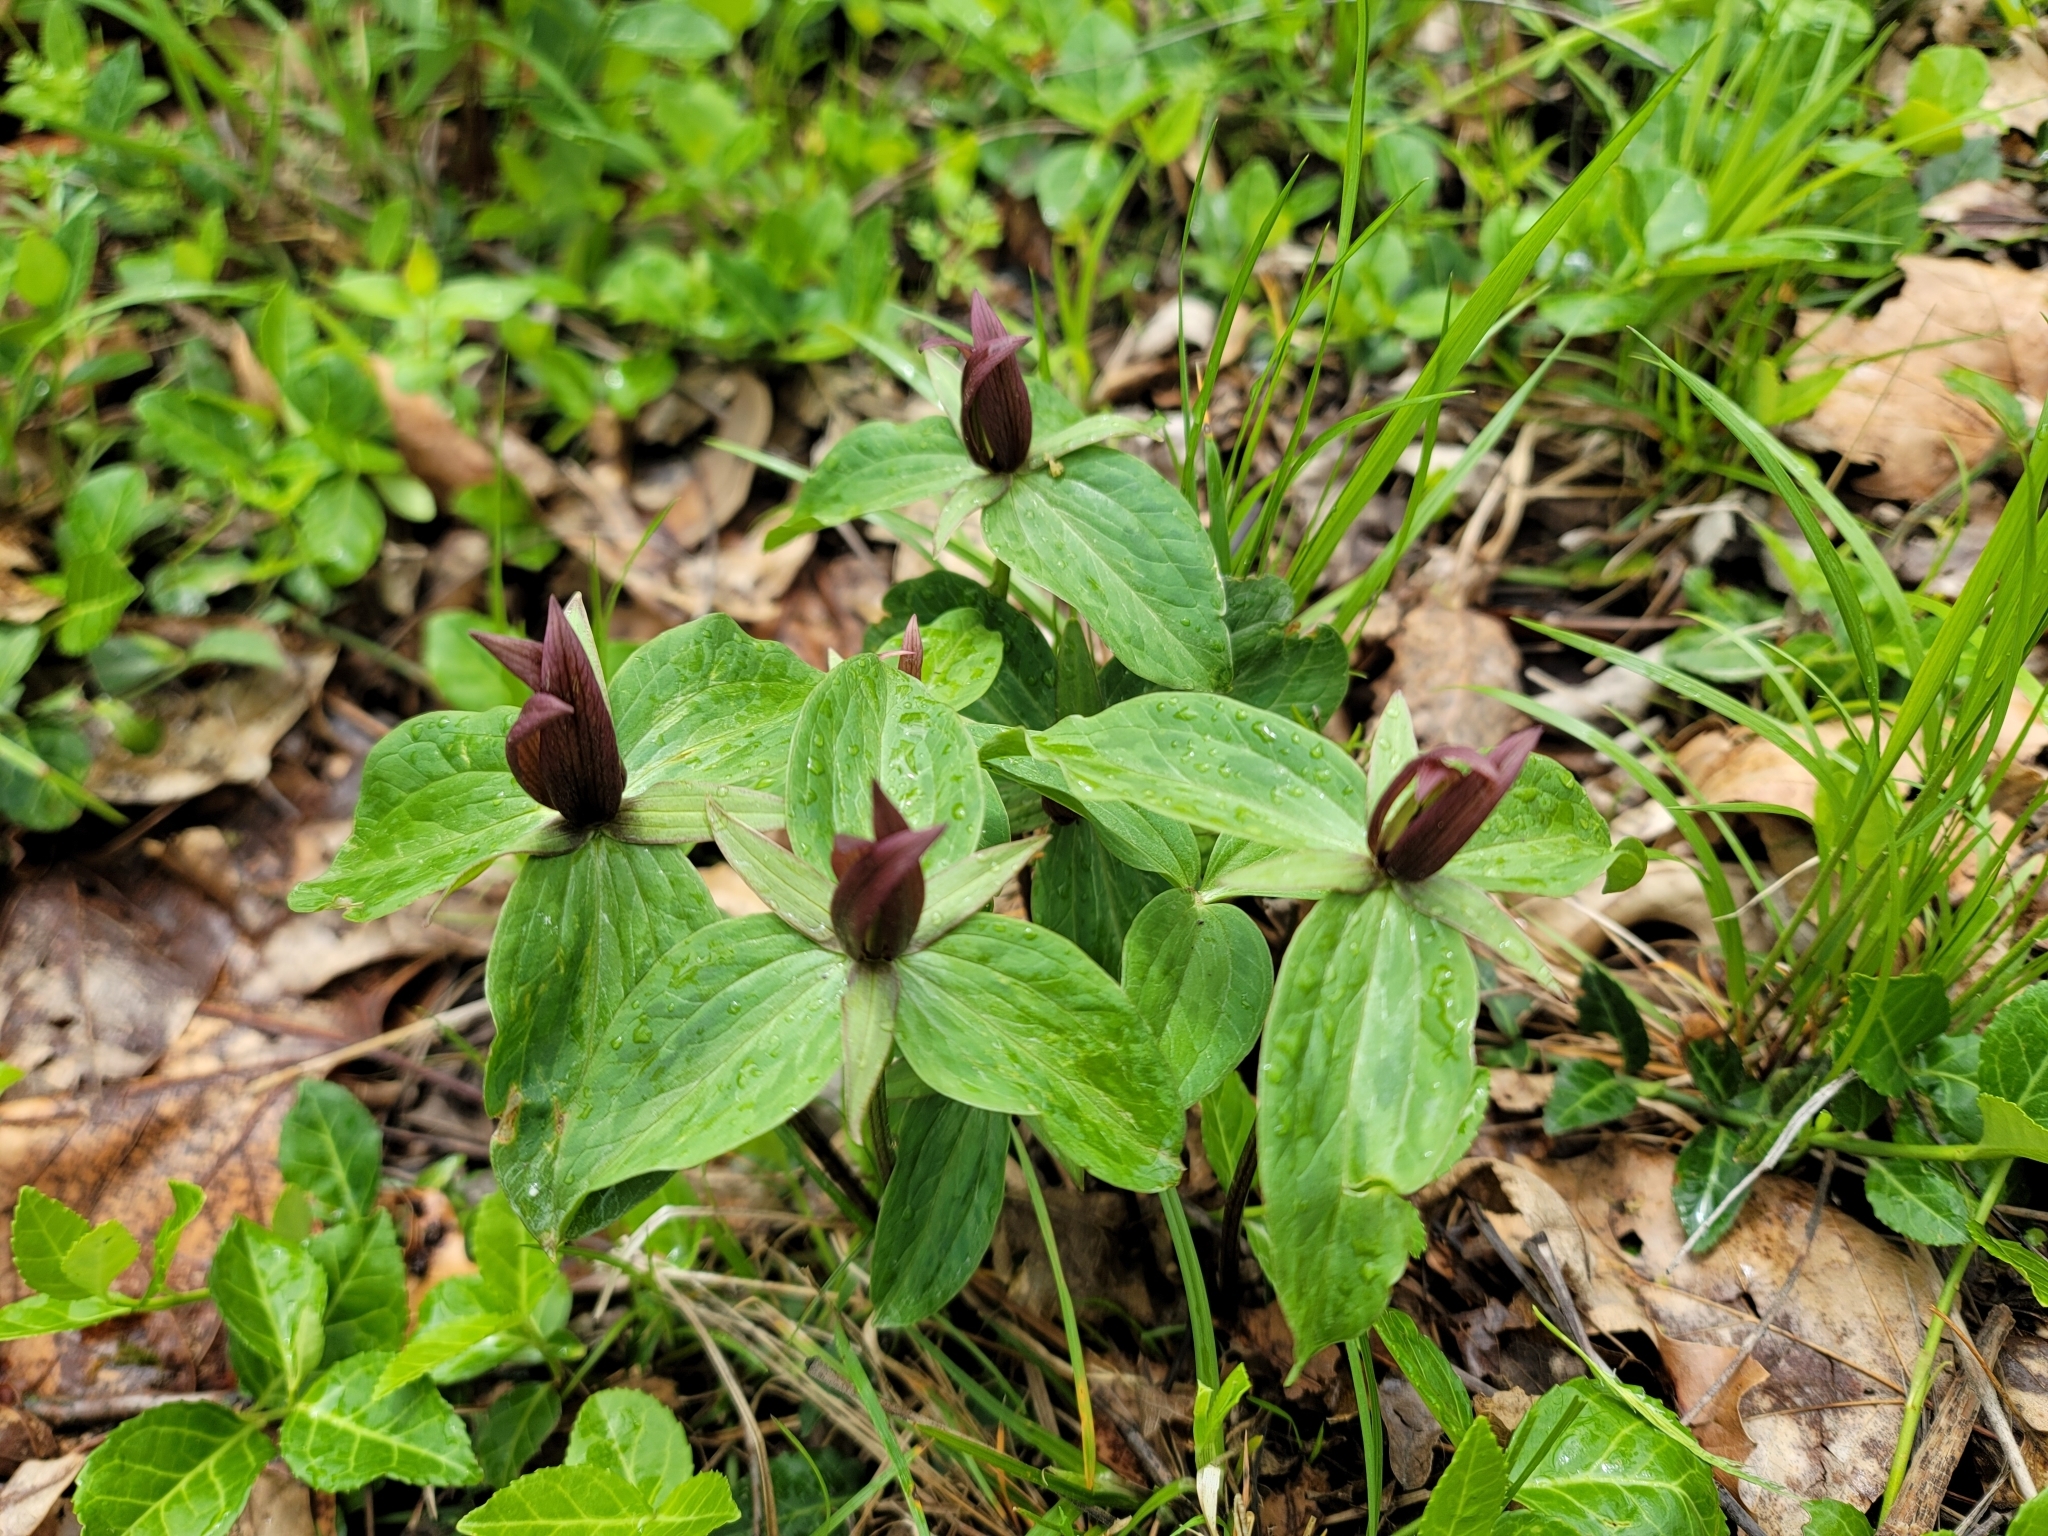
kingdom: Plantae
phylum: Tracheophyta
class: Liliopsida
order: Liliales
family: Melanthiaceae
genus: Trillium
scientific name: Trillium sessile
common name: Sessile trillium
